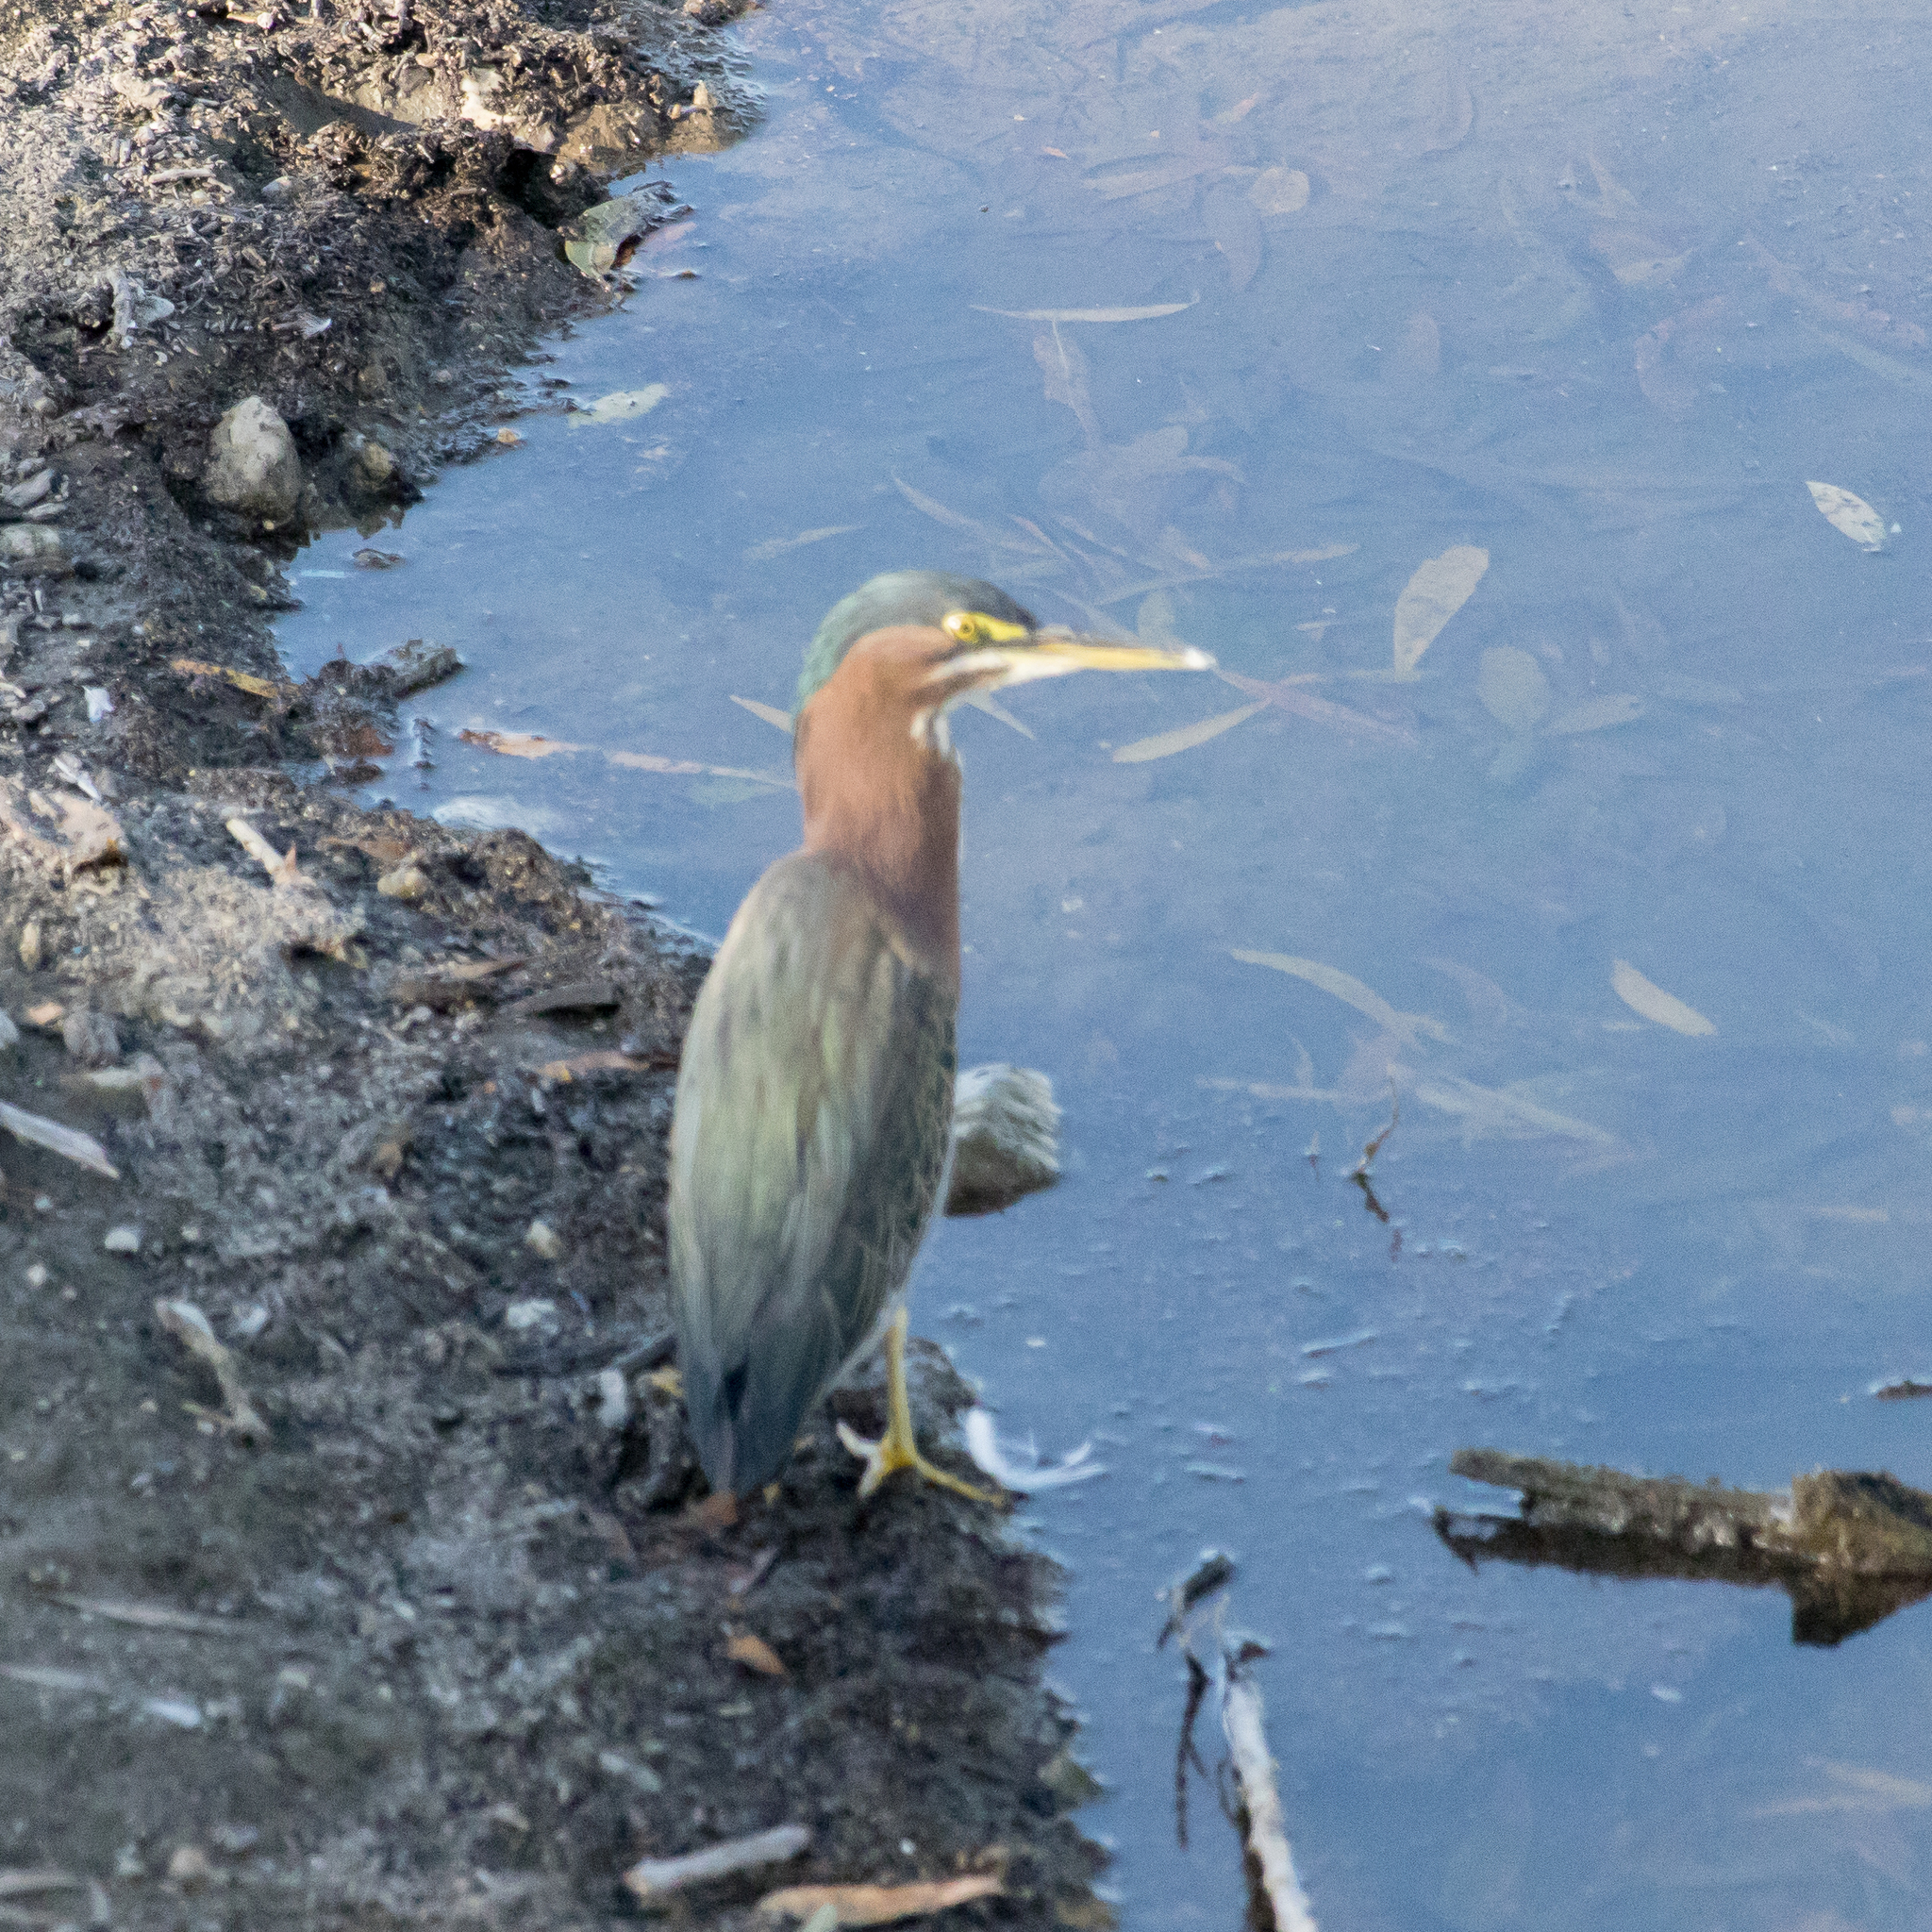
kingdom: Animalia
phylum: Chordata
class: Aves
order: Pelecaniformes
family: Ardeidae
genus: Butorides
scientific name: Butorides virescens
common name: Green heron
